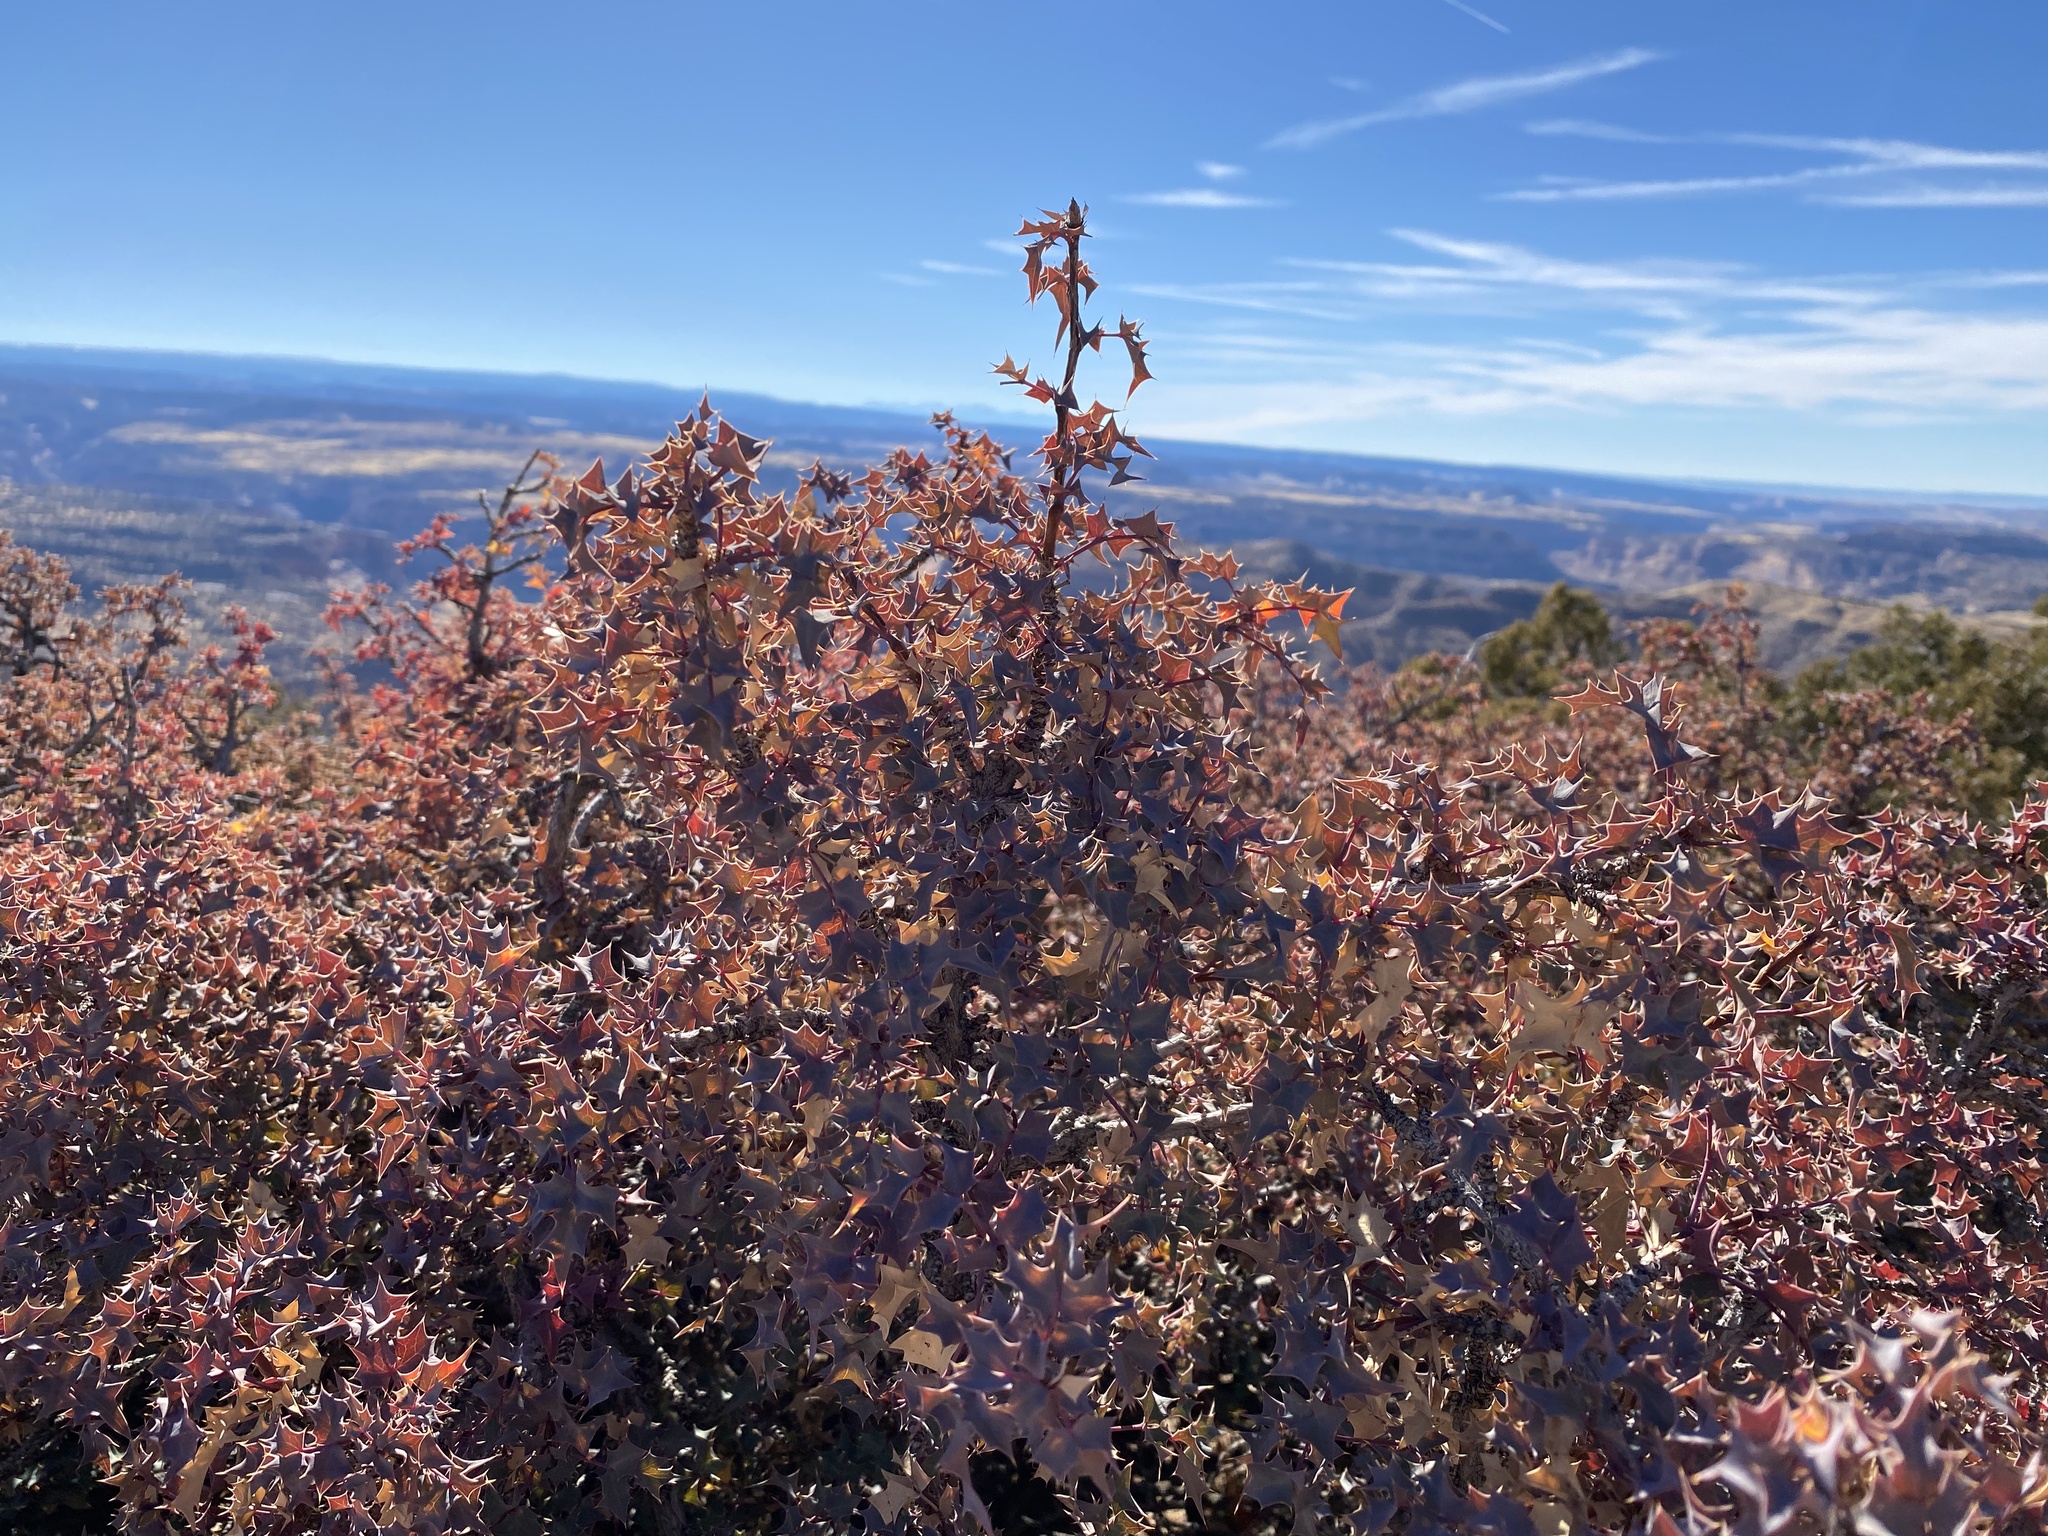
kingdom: Plantae
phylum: Tracheophyta
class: Magnoliopsida
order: Ranunculales
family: Berberidaceae
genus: Alloberberis
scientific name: Alloberberis fremontii
